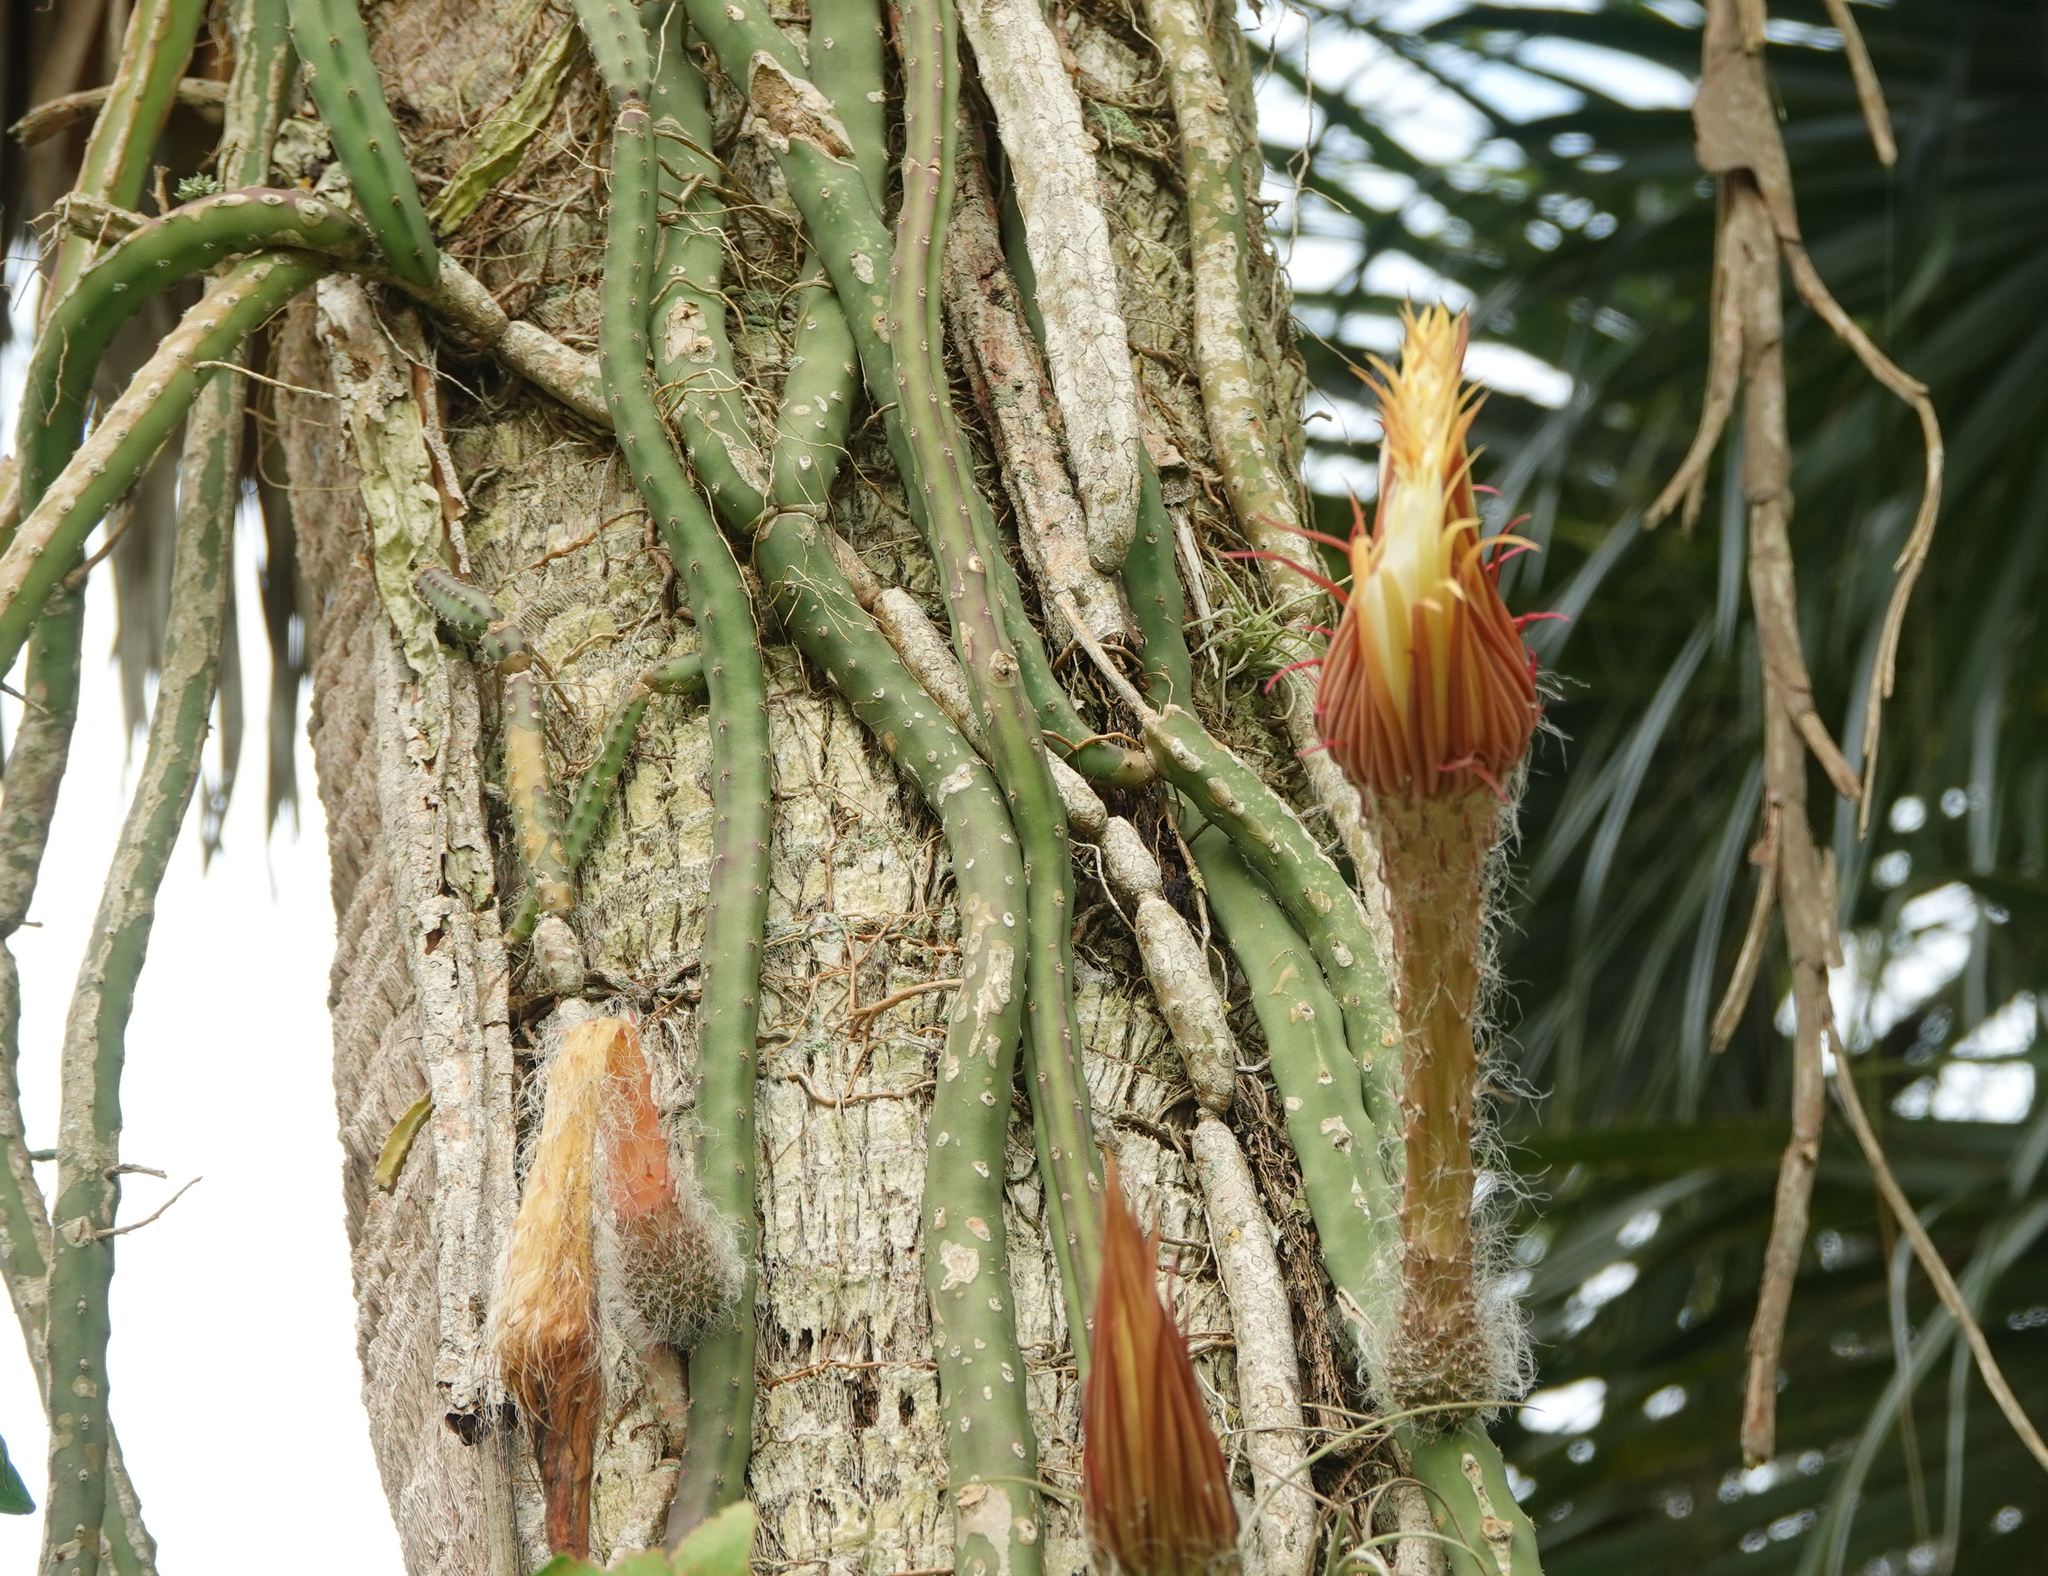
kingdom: Plantae
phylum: Tracheophyta
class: Magnoliopsida
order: Caryophyllales
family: Cactaceae
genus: Selenicereus
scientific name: Selenicereus grandiflorus
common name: Queen of the night
